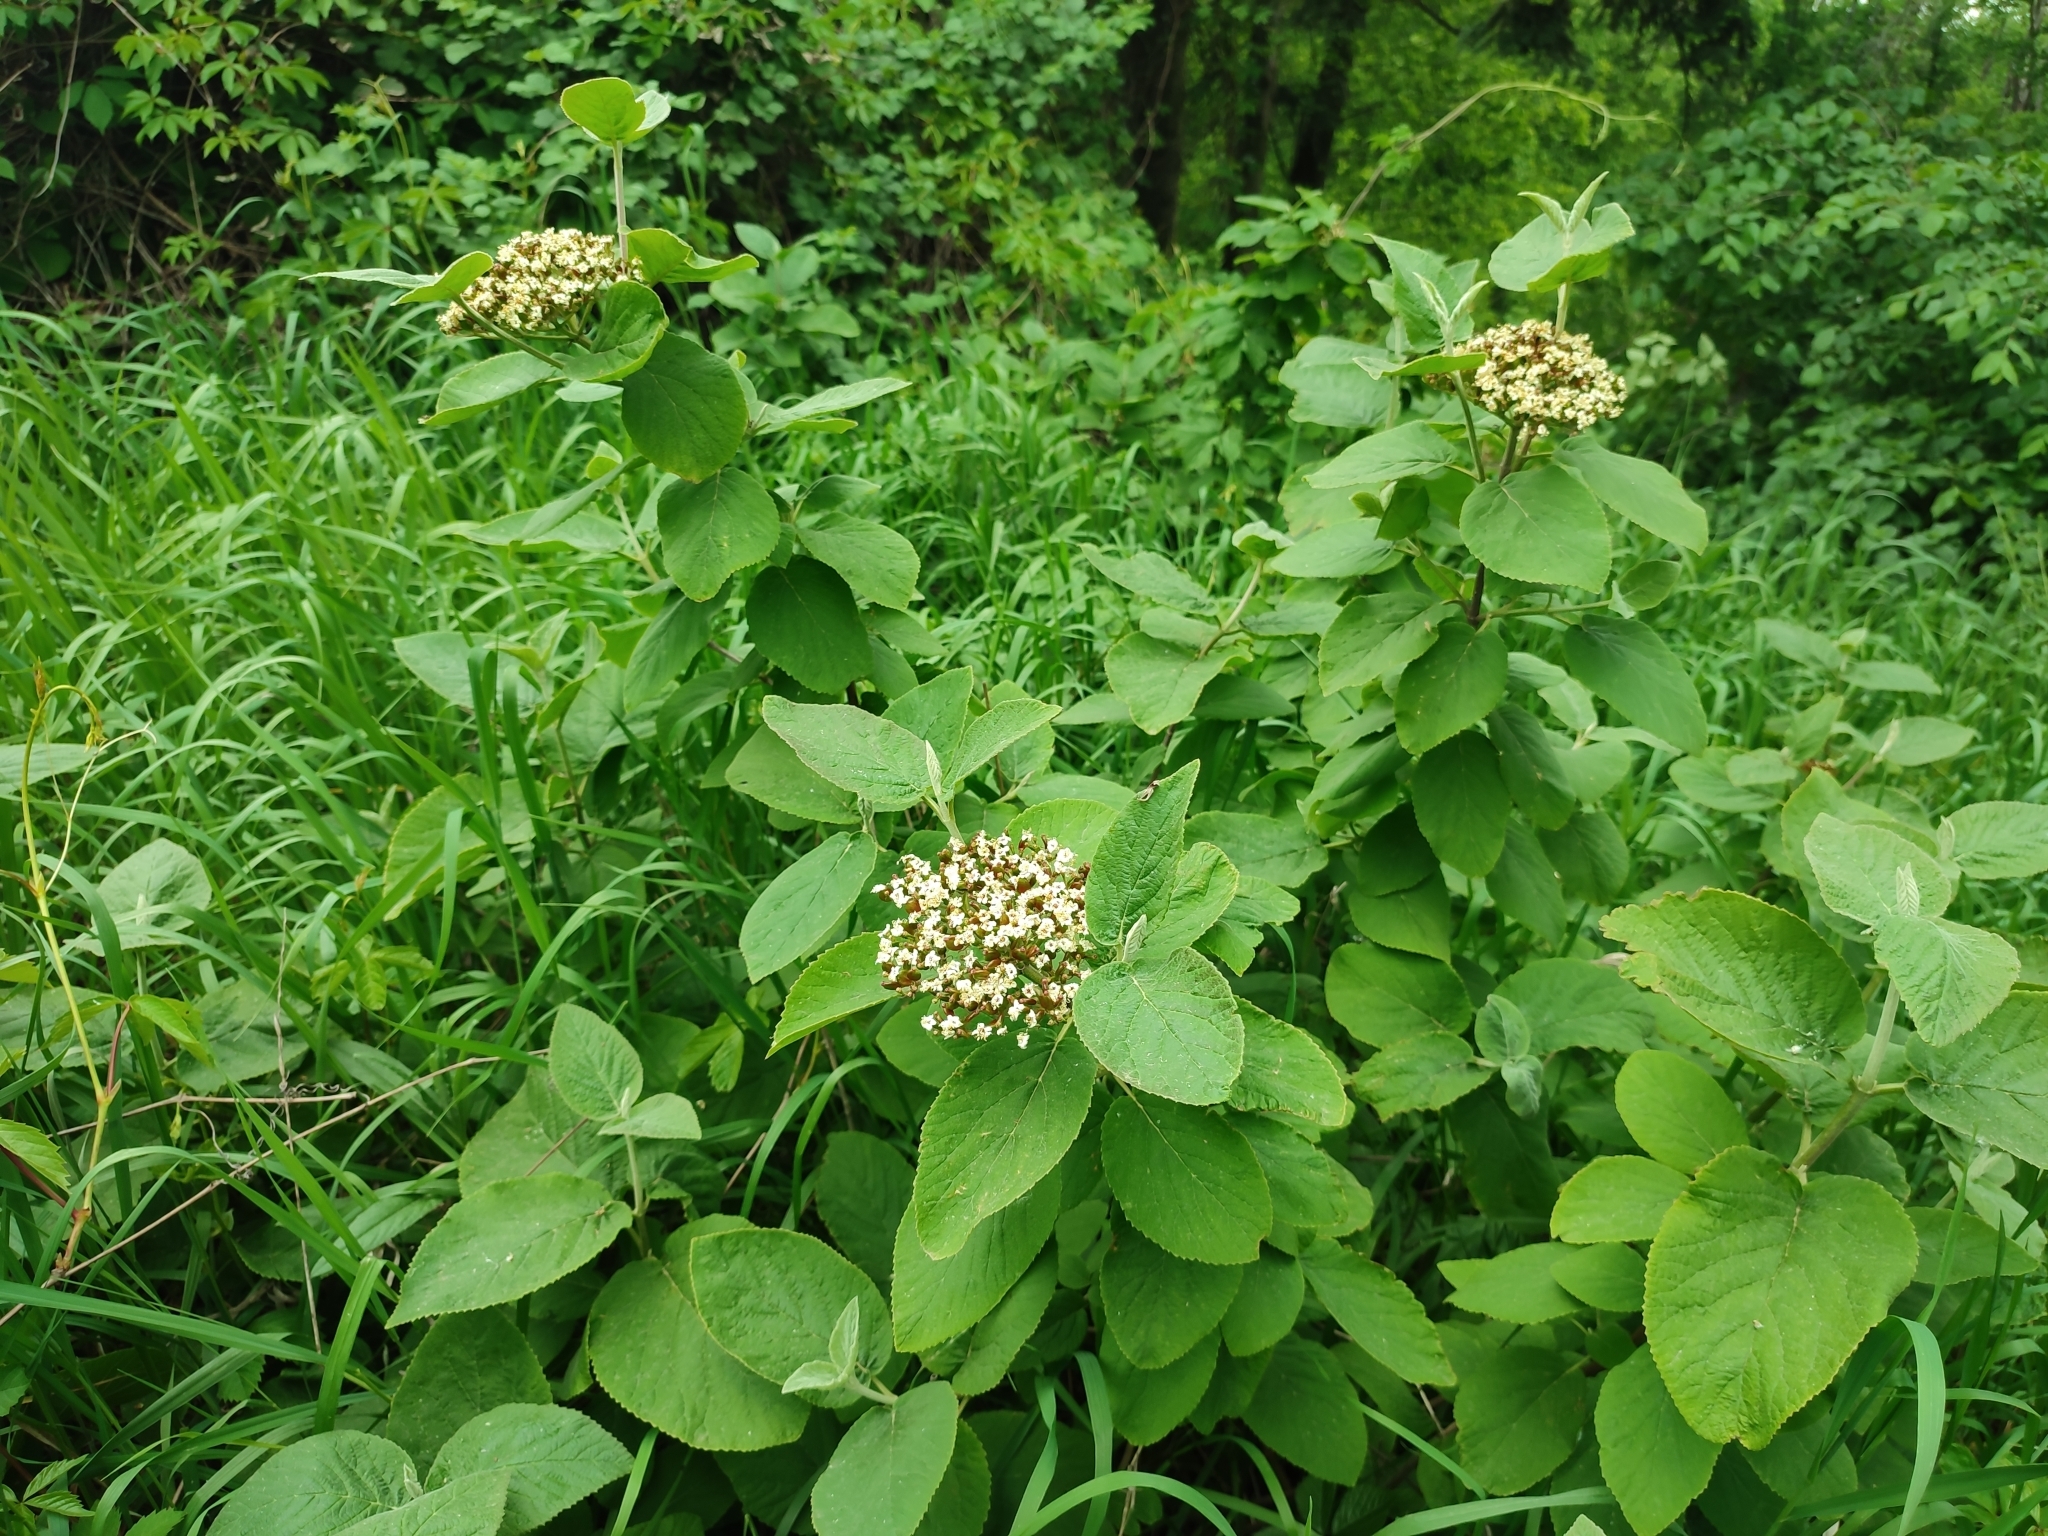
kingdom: Plantae
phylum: Tracheophyta
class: Magnoliopsida
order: Dipsacales
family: Viburnaceae
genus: Viburnum
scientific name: Viburnum lantana
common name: Wayfaring tree
